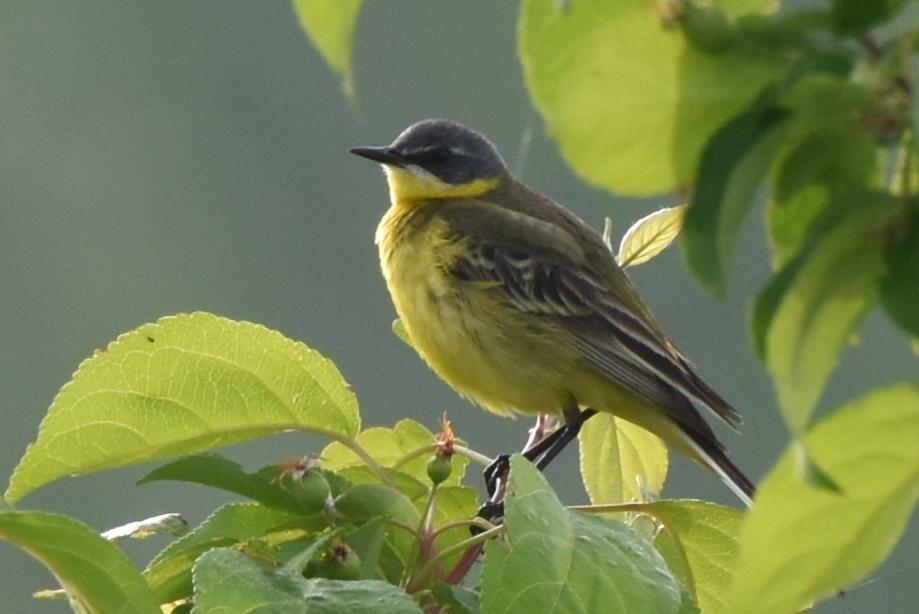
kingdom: Animalia
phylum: Chordata
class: Aves
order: Passeriformes
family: Motacillidae
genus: Motacilla
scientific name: Motacilla flava
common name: Western yellow wagtail
